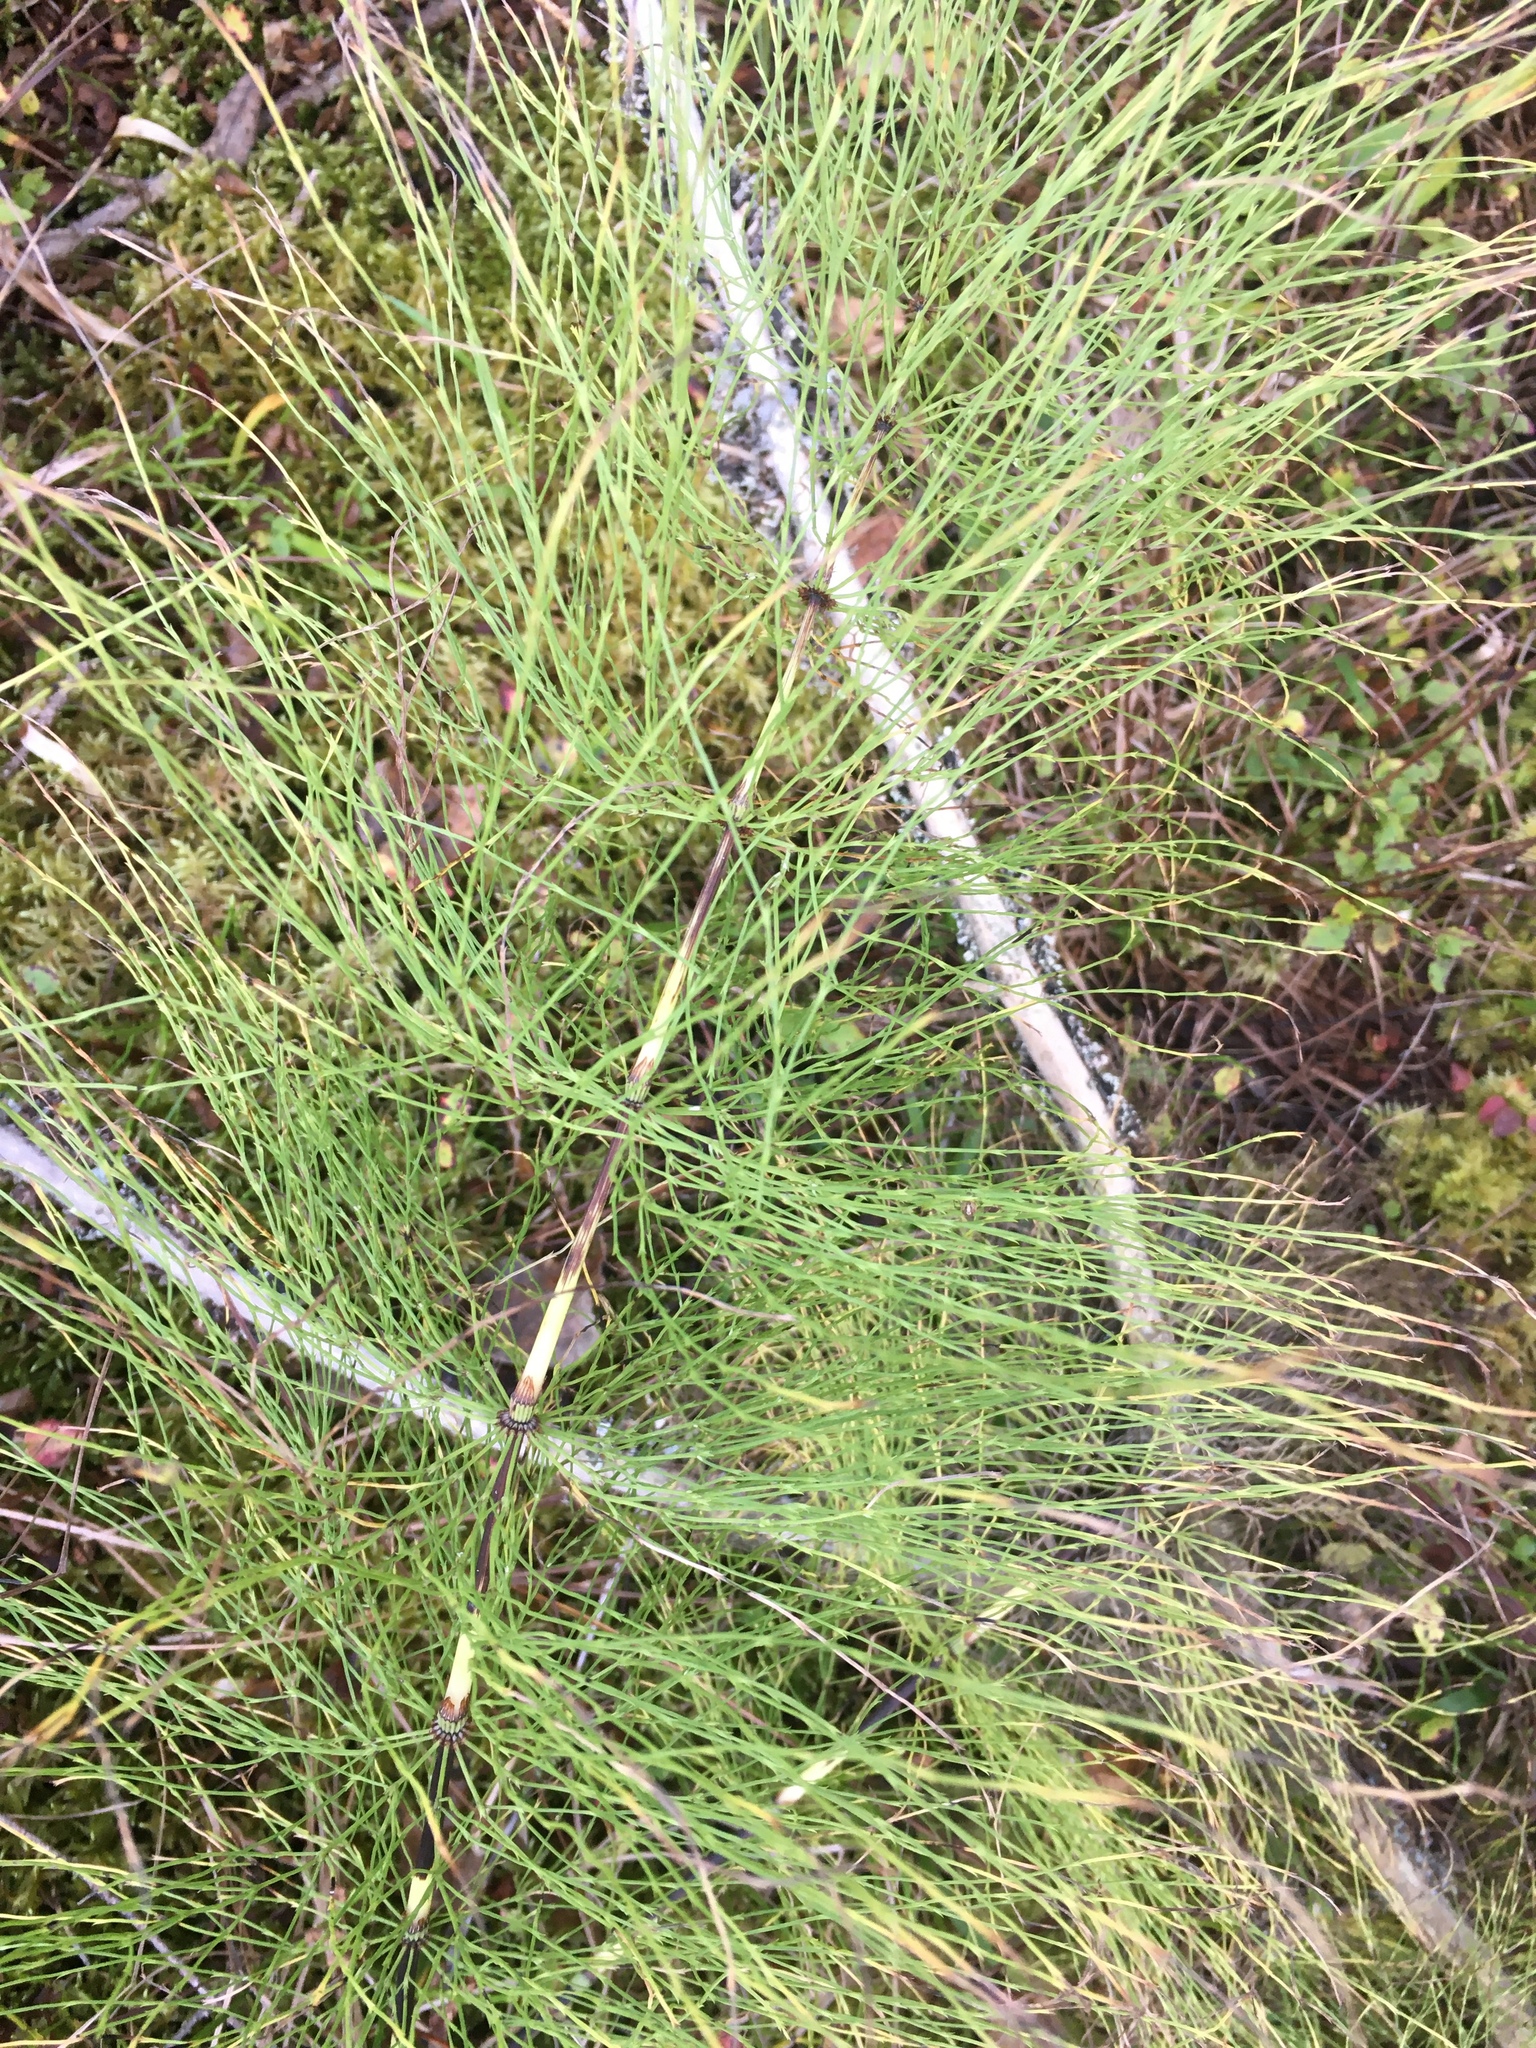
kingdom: Plantae
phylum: Tracheophyta
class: Polypodiopsida
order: Equisetales
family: Equisetaceae
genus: Equisetum
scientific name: Equisetum sylvaticum
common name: Wood horsetail
